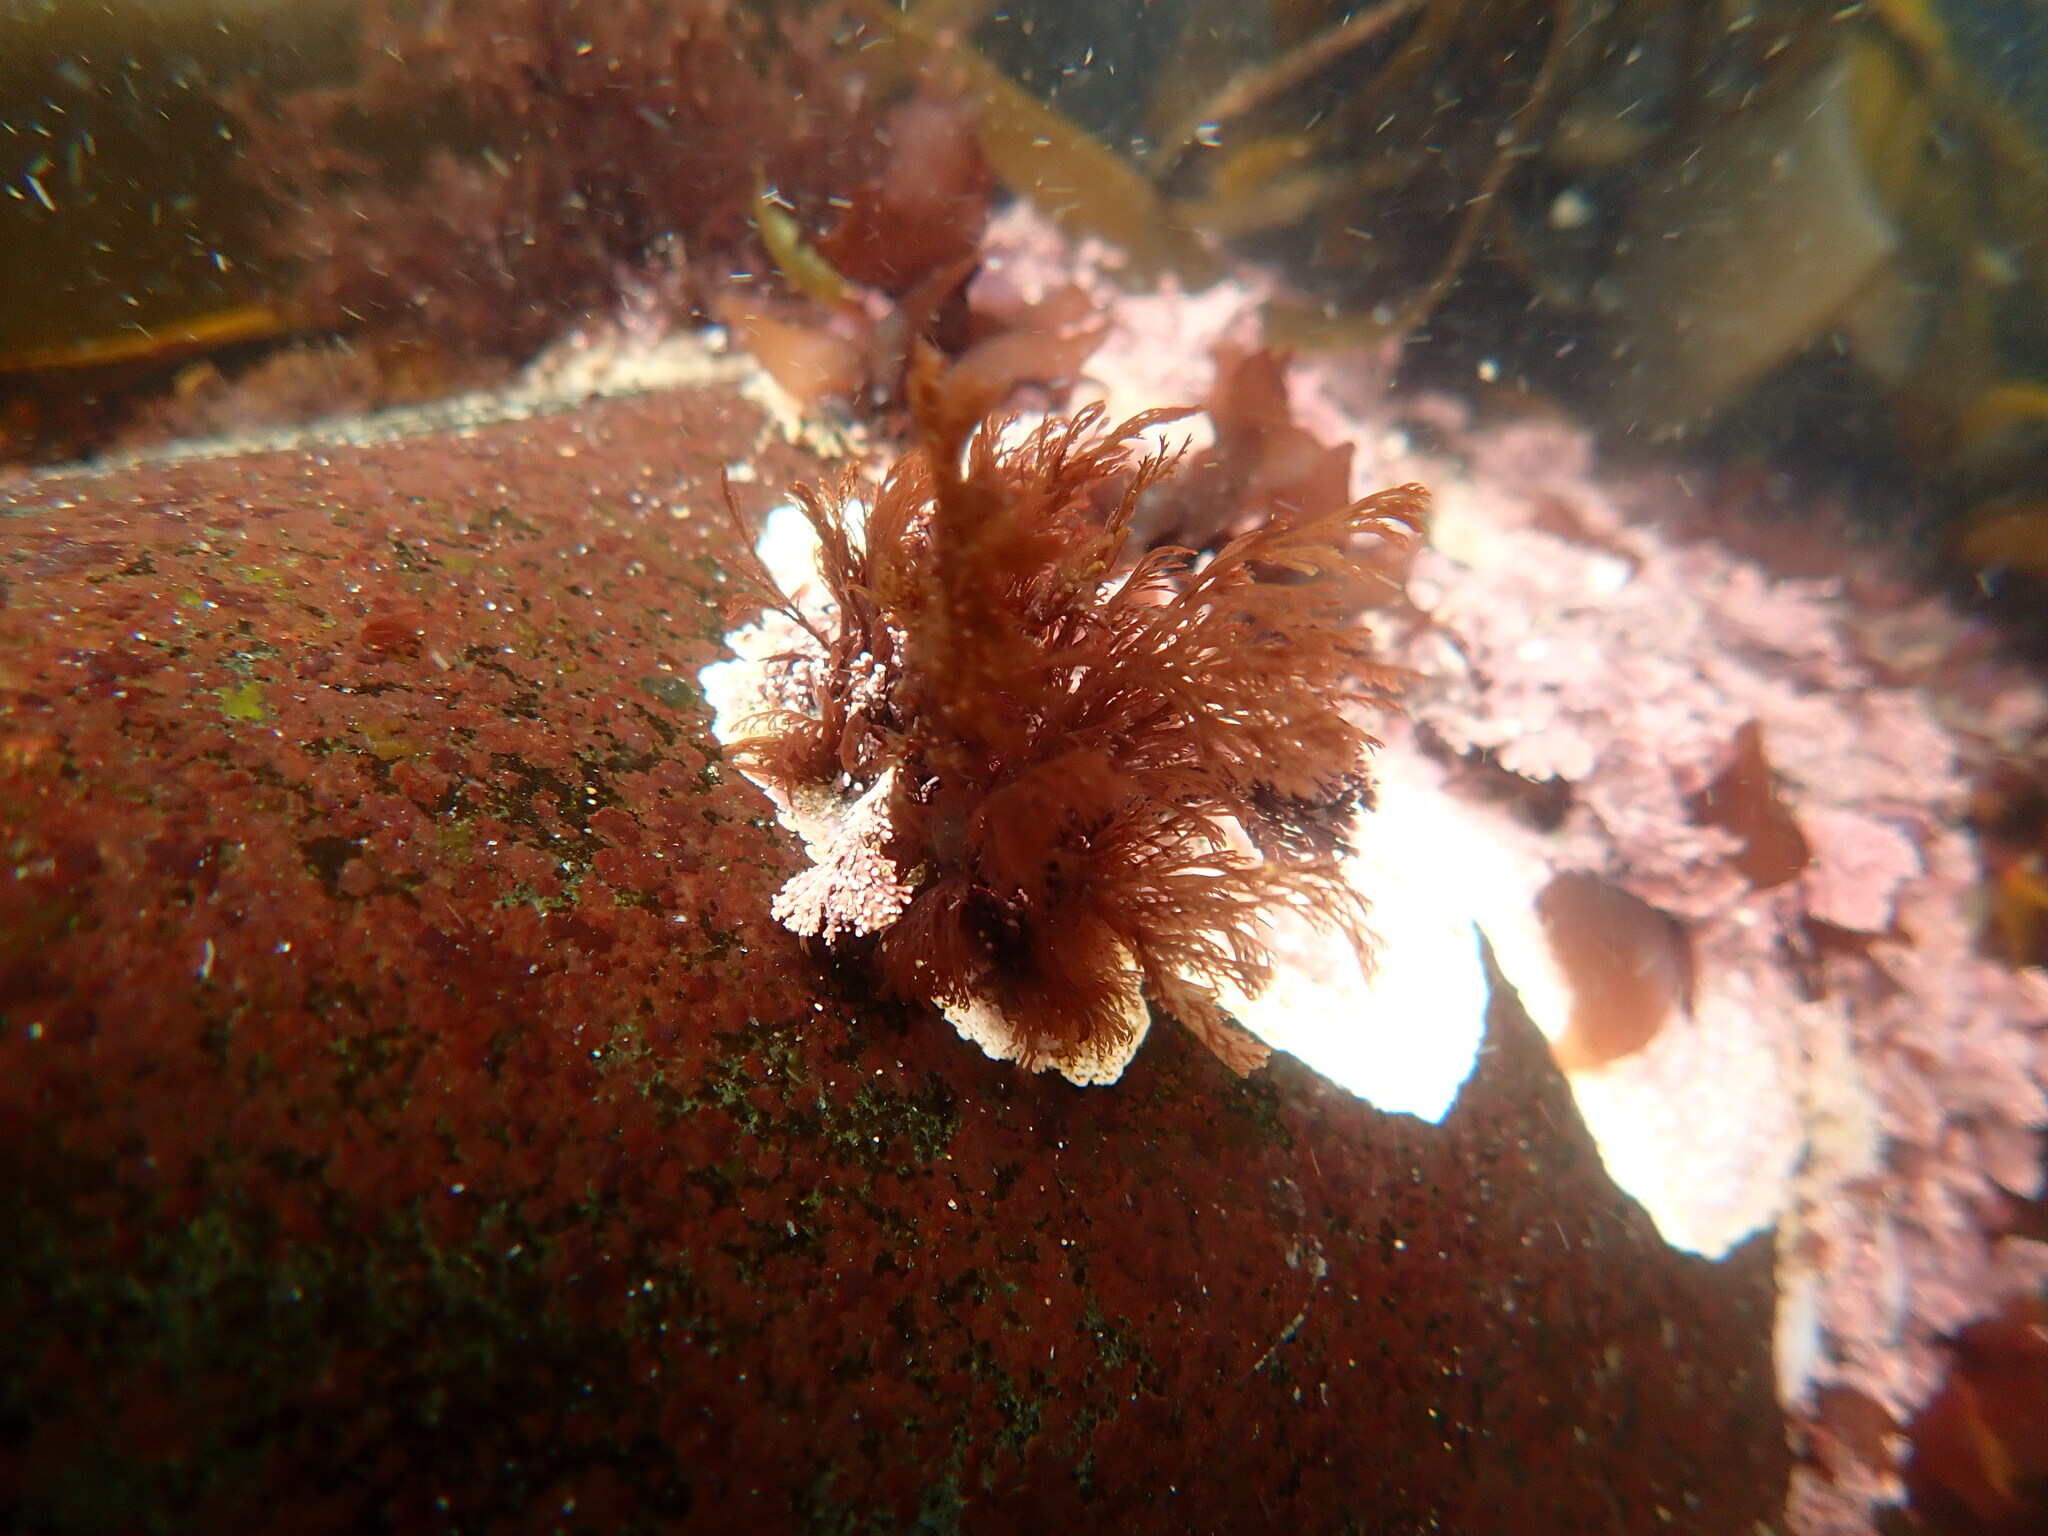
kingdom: Plantae
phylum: Rhodophyta
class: Florideophyceae
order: Ceramiales
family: Ceramiaceae
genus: Microcladia
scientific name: Microcladia borealis
